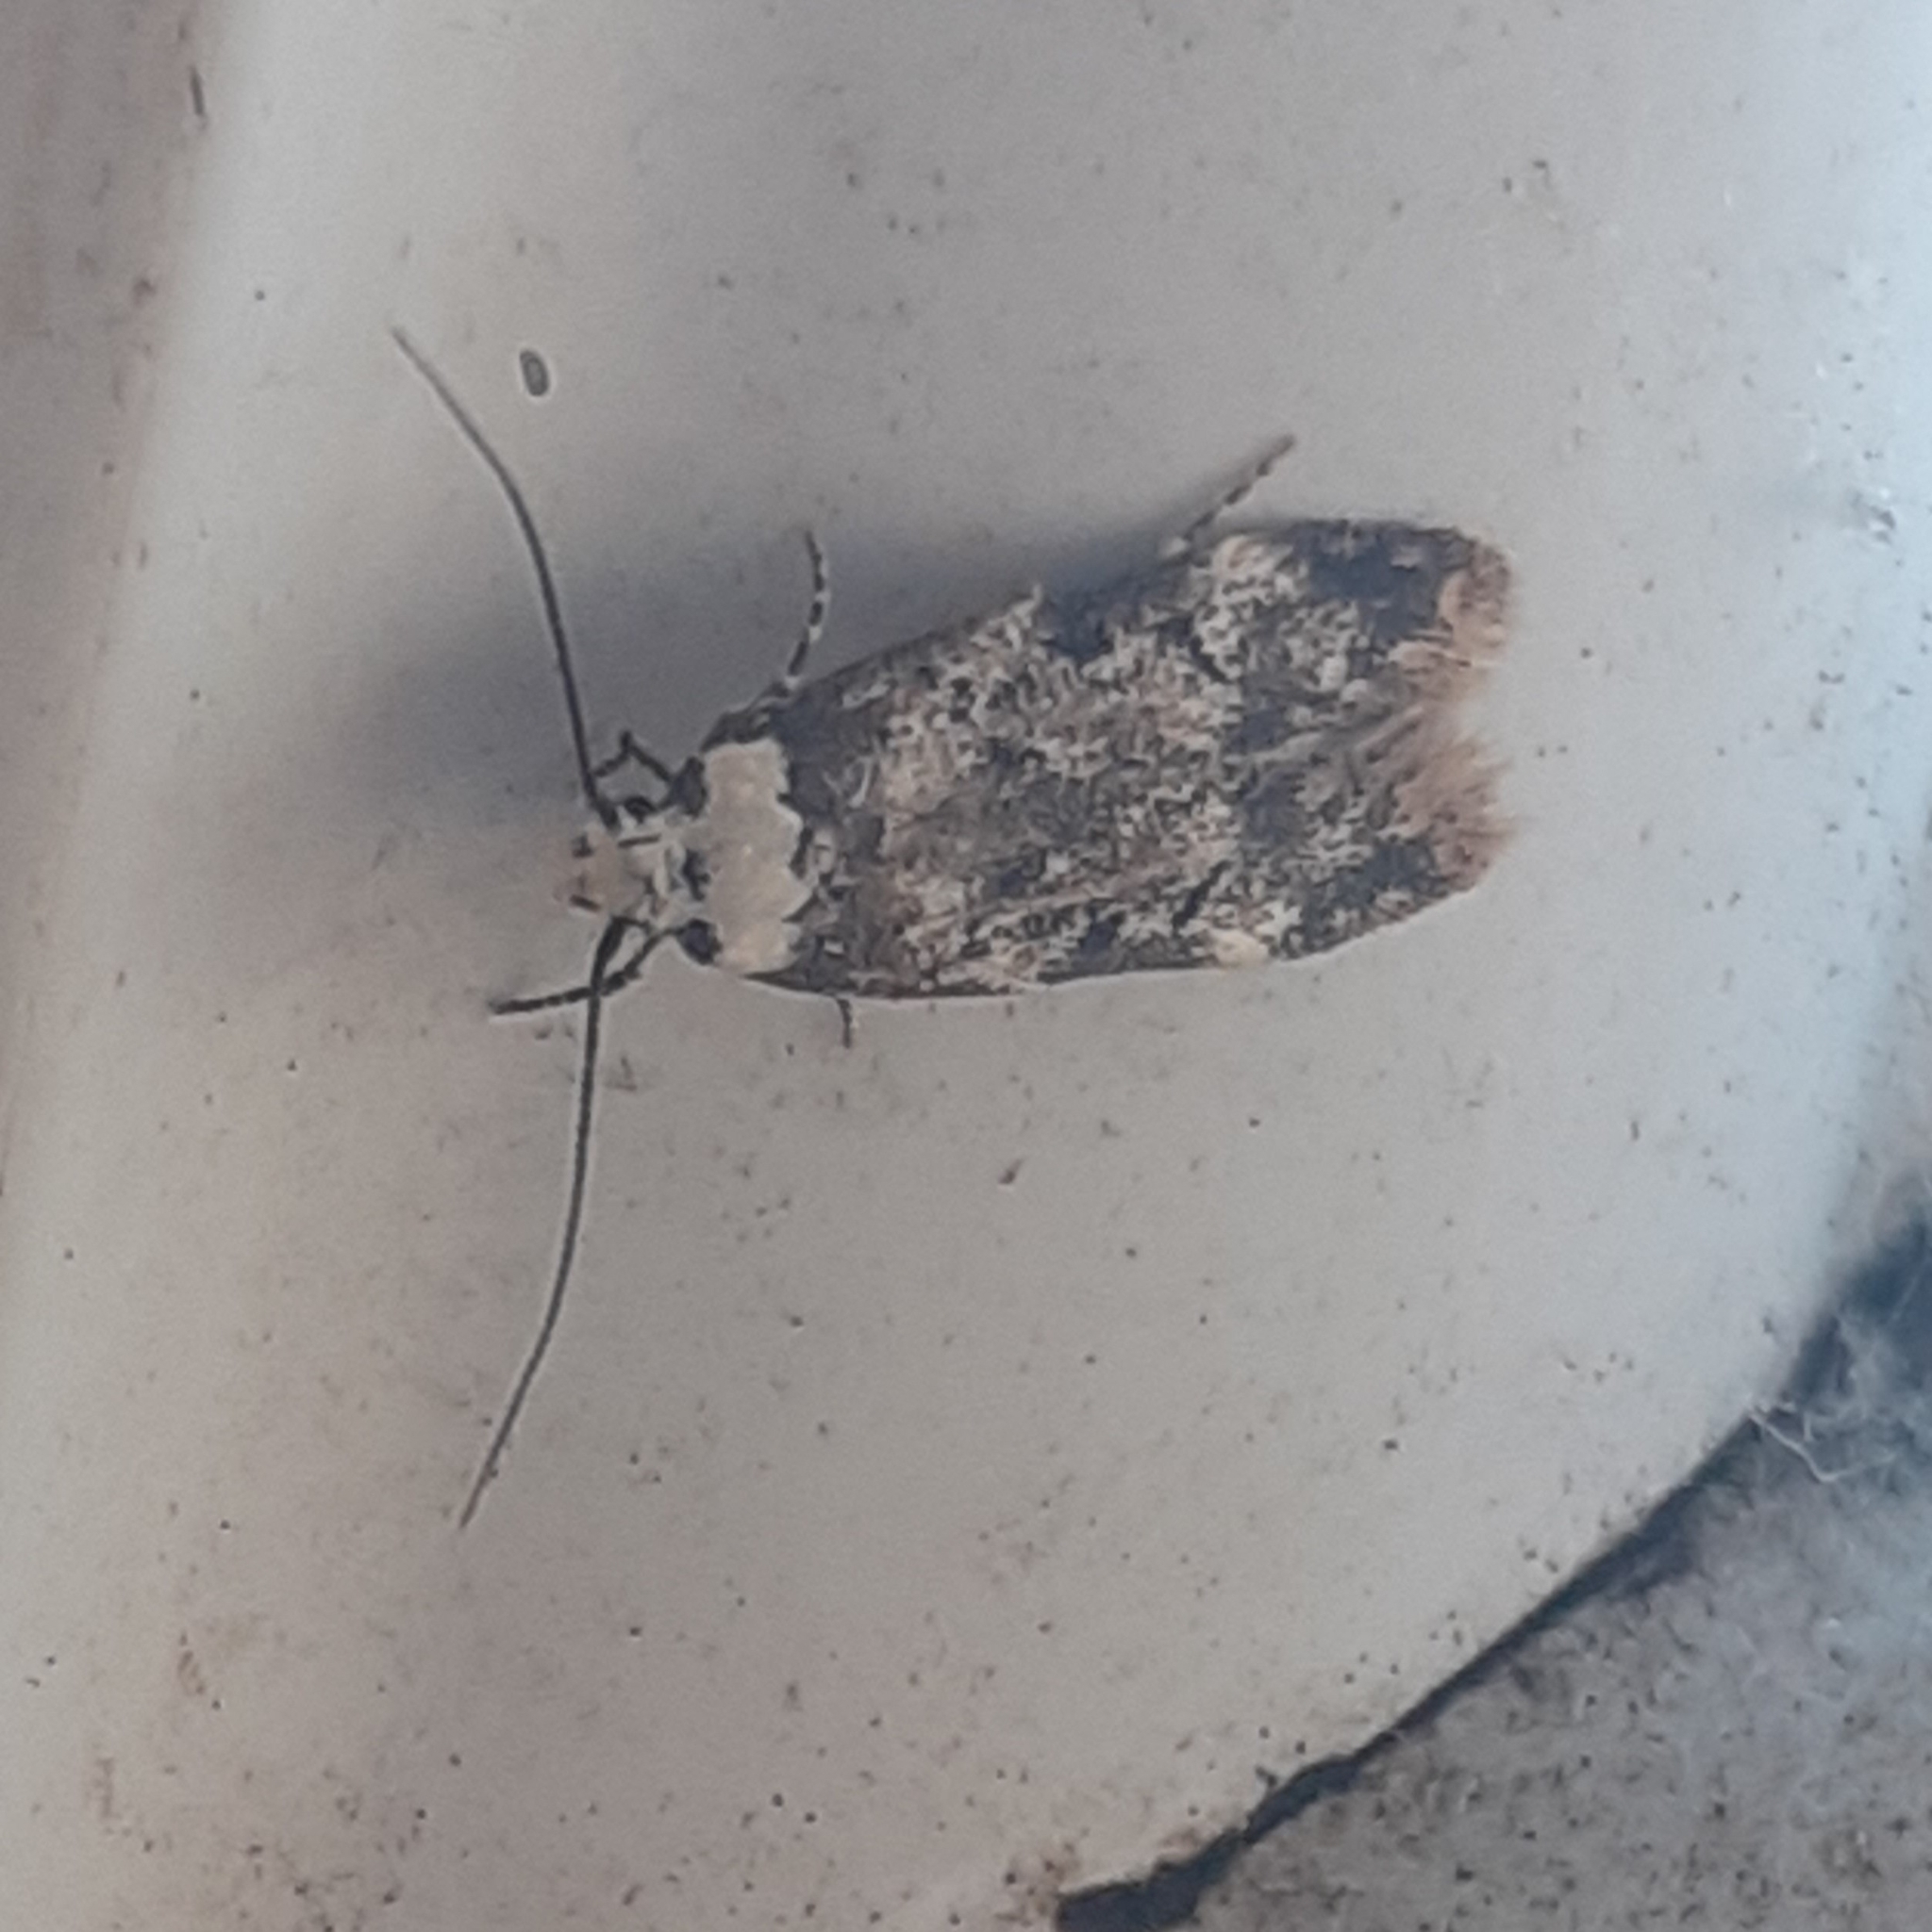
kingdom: Animalia
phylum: Arthropoda
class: Insecta
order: Lepidoptera
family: Oecophoridae
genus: Endrosis
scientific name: Endrosis sarcitrella
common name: White-shouldered house moth
